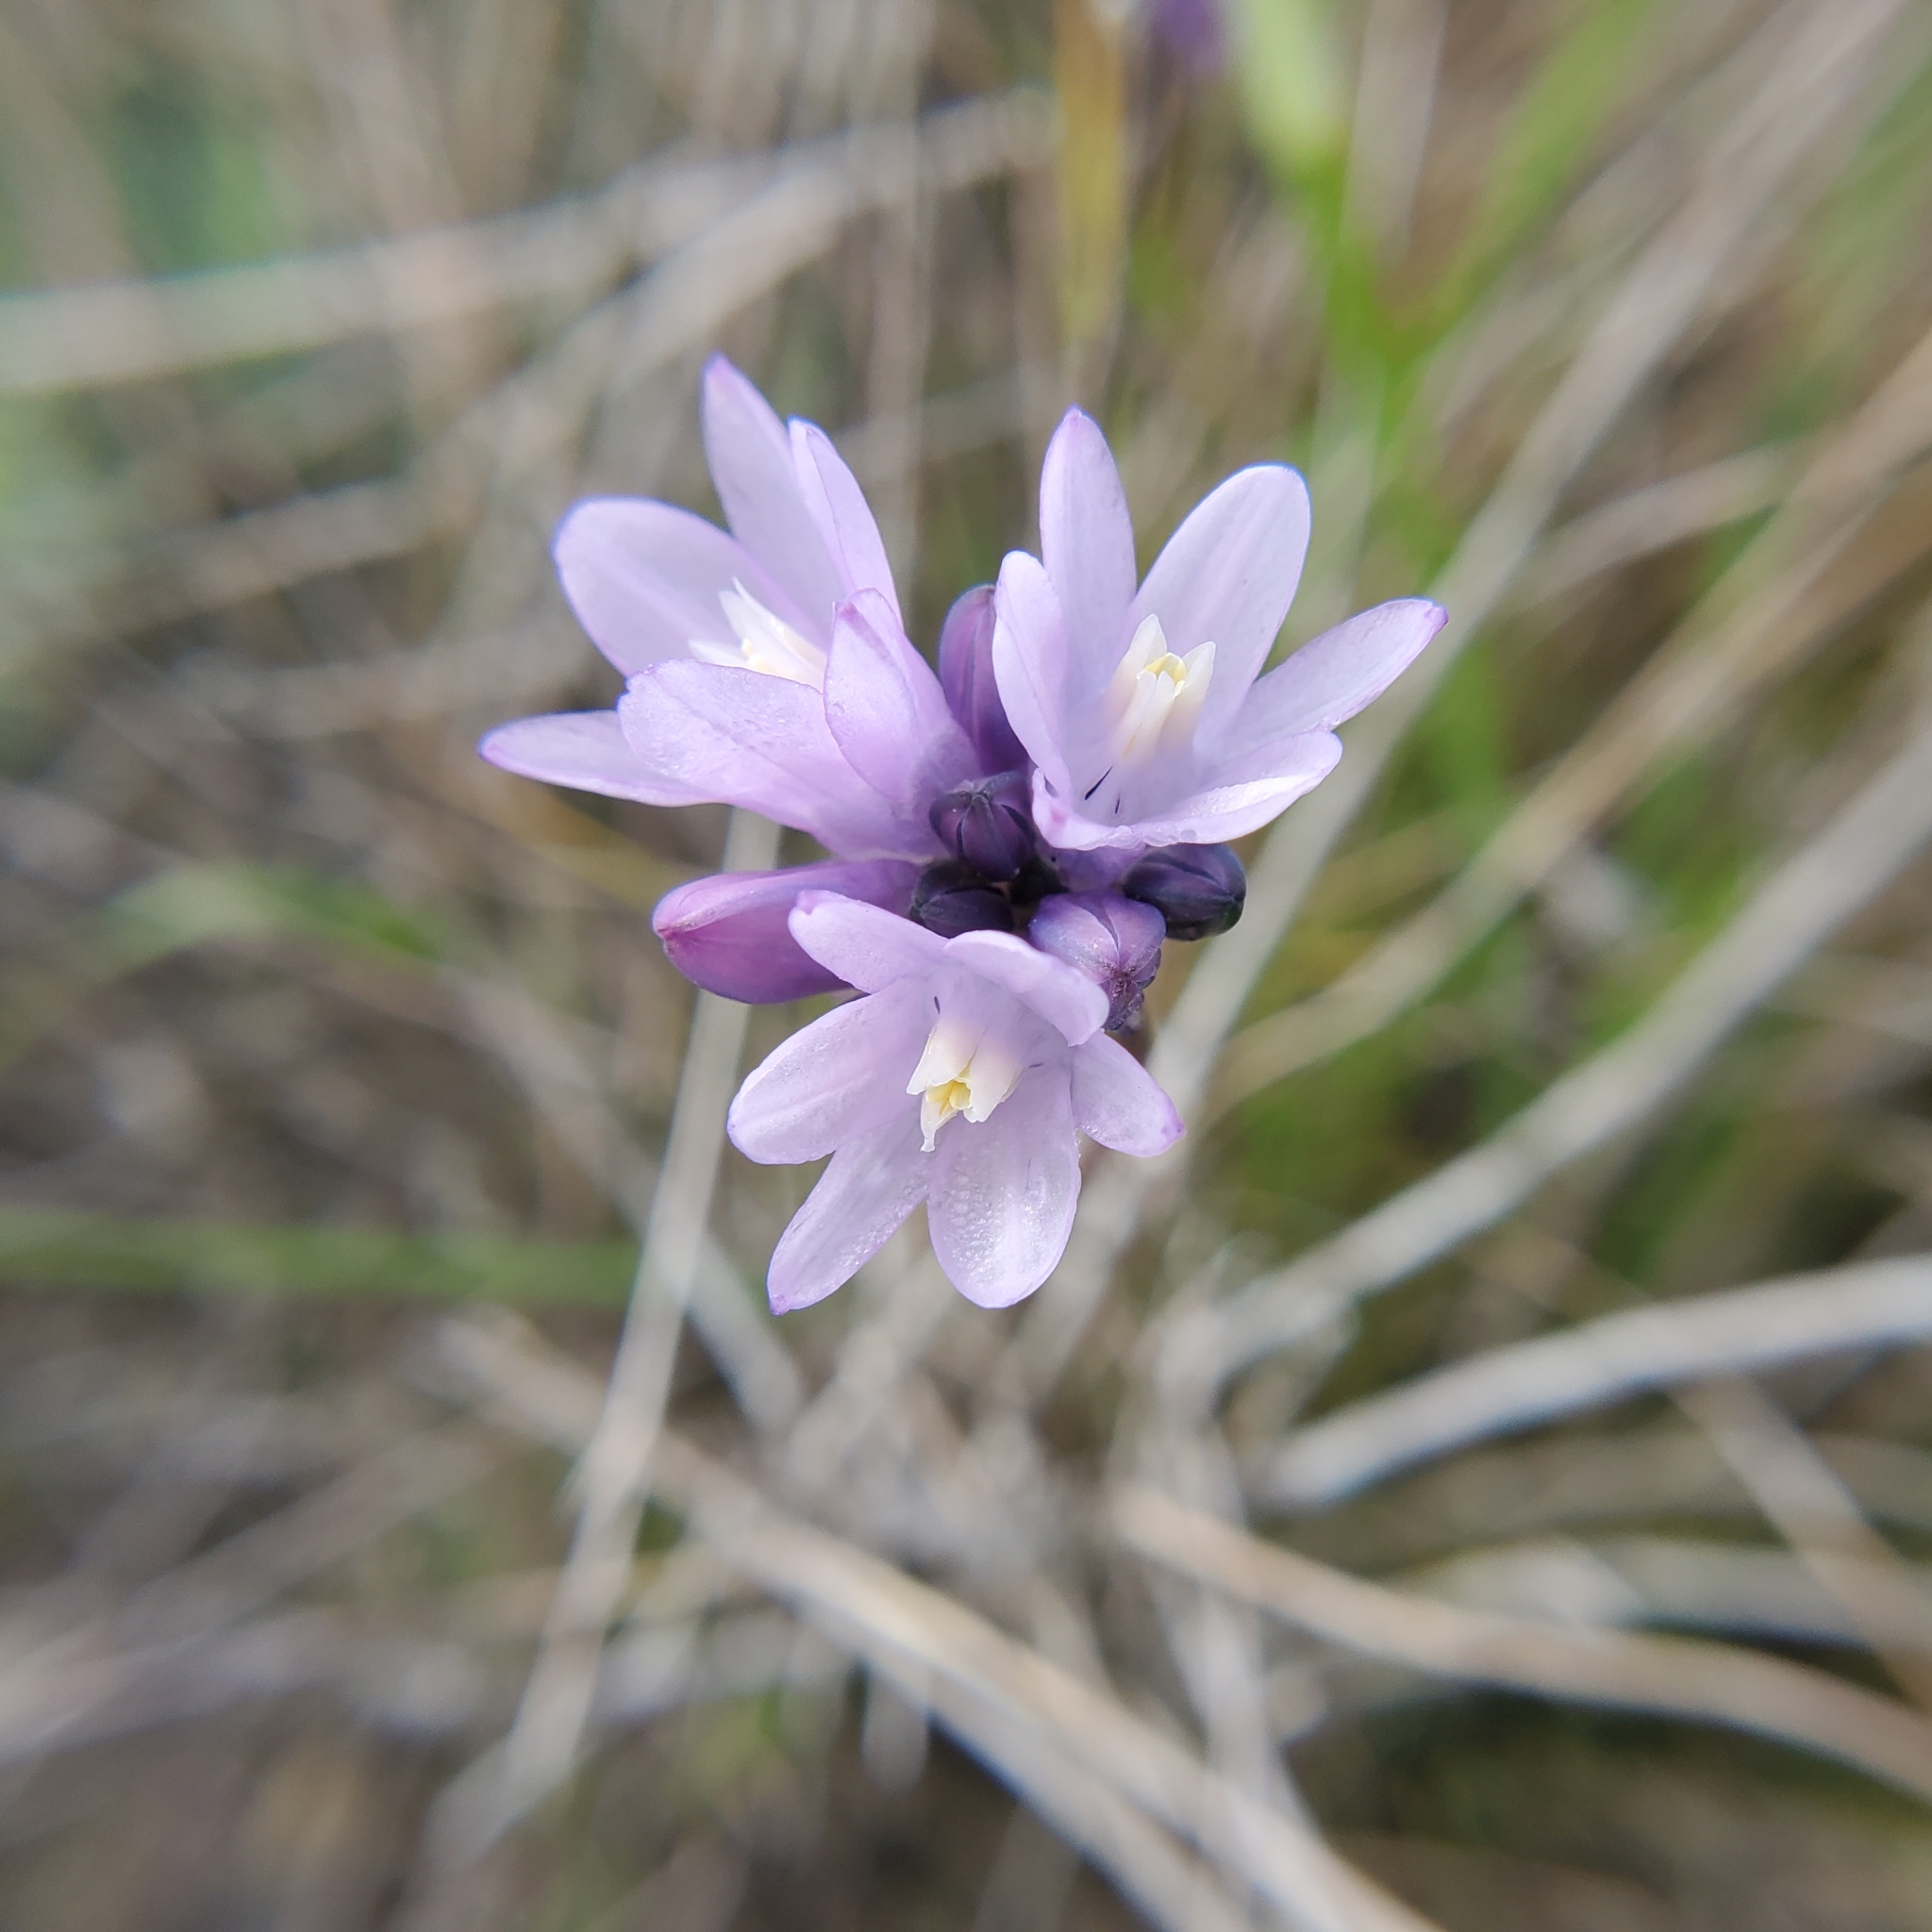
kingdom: Plantae
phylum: Tracheophyta
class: Liliopsida
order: Asparagales
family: Asparagaceae
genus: Dipterostemon
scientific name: Dipterostemon capitatus
